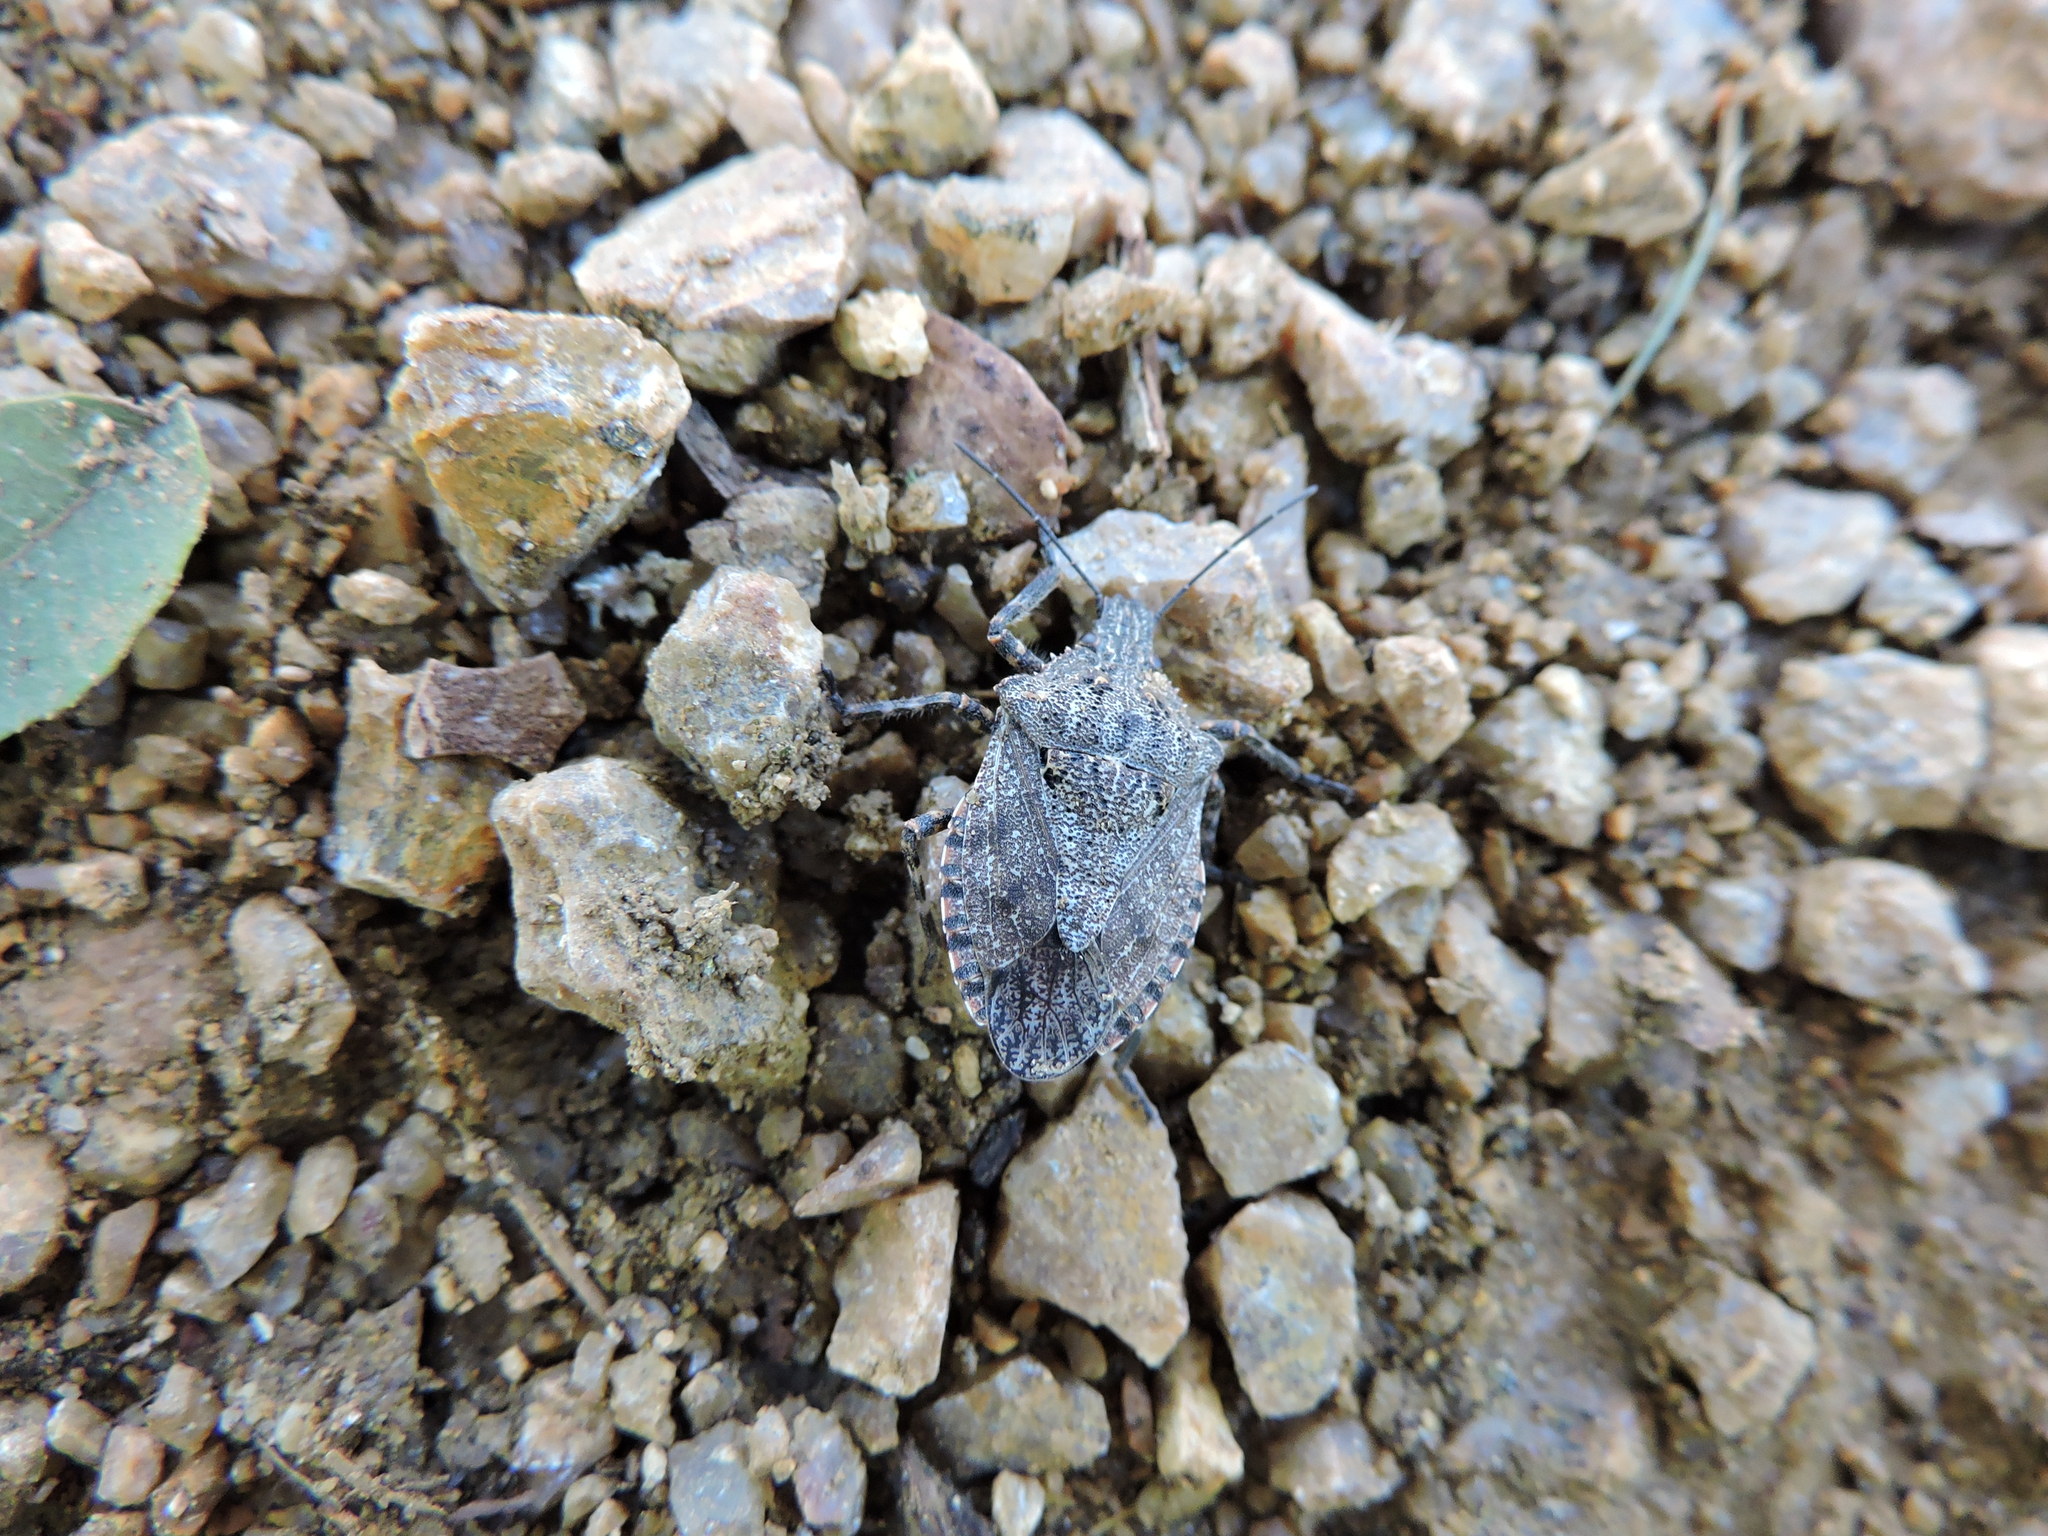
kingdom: Animalia
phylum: Arthropoda
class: Insecta
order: Hemiptera
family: Pentatomidae
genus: Brochymena
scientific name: Brochymena chelonoides
